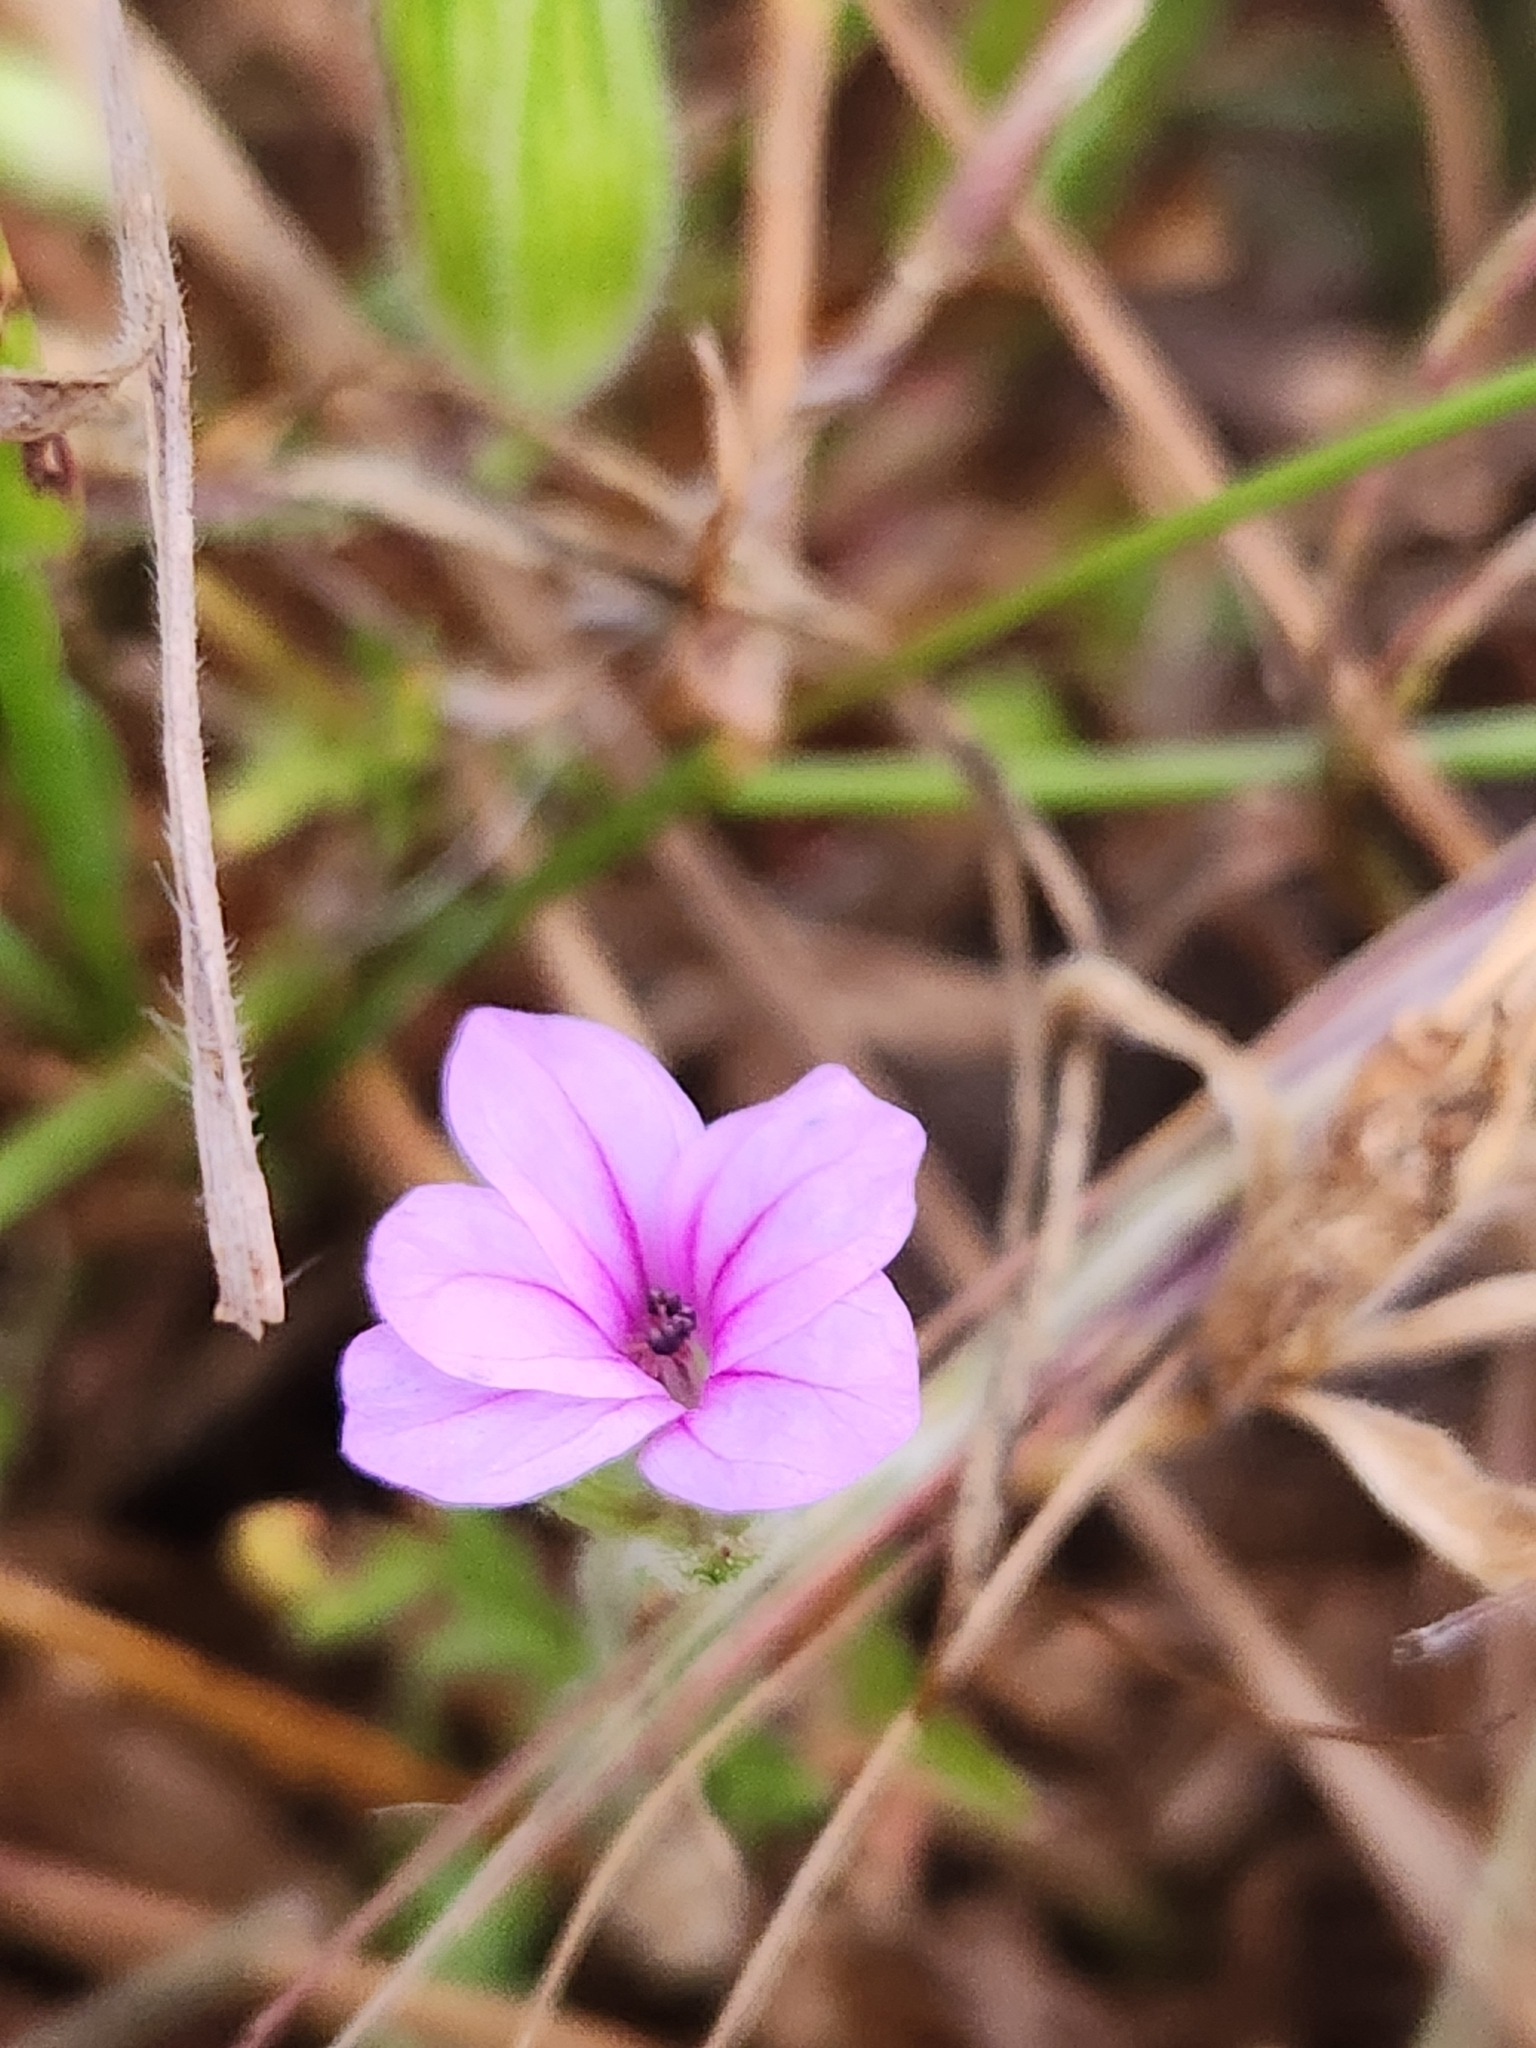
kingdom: Plantae
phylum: Tracheophyta
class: Magnoliopsida
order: Geraniales
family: Geraniaceae
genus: Erodium
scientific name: Erodium botrys
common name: Mediterranean stork's-bill
